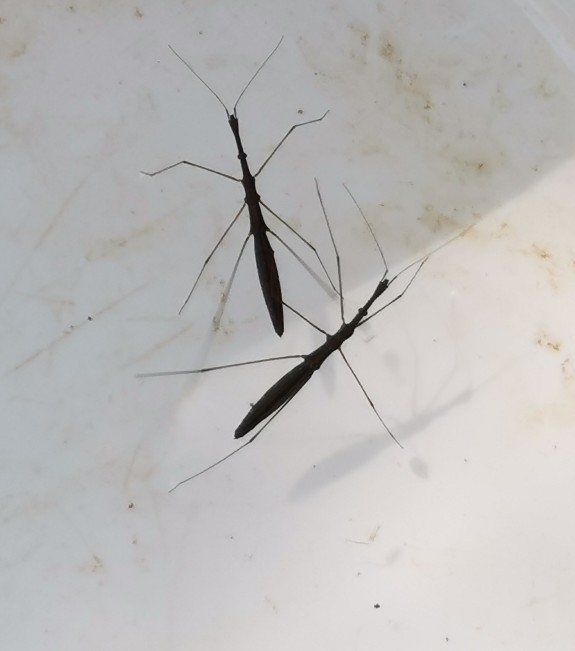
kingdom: Animalia
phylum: Arthropoda
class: Insecta
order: Hemiptera
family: Hydrometridae
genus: Hydrometra
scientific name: Hydrometra stagnorum
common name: Water measurer
